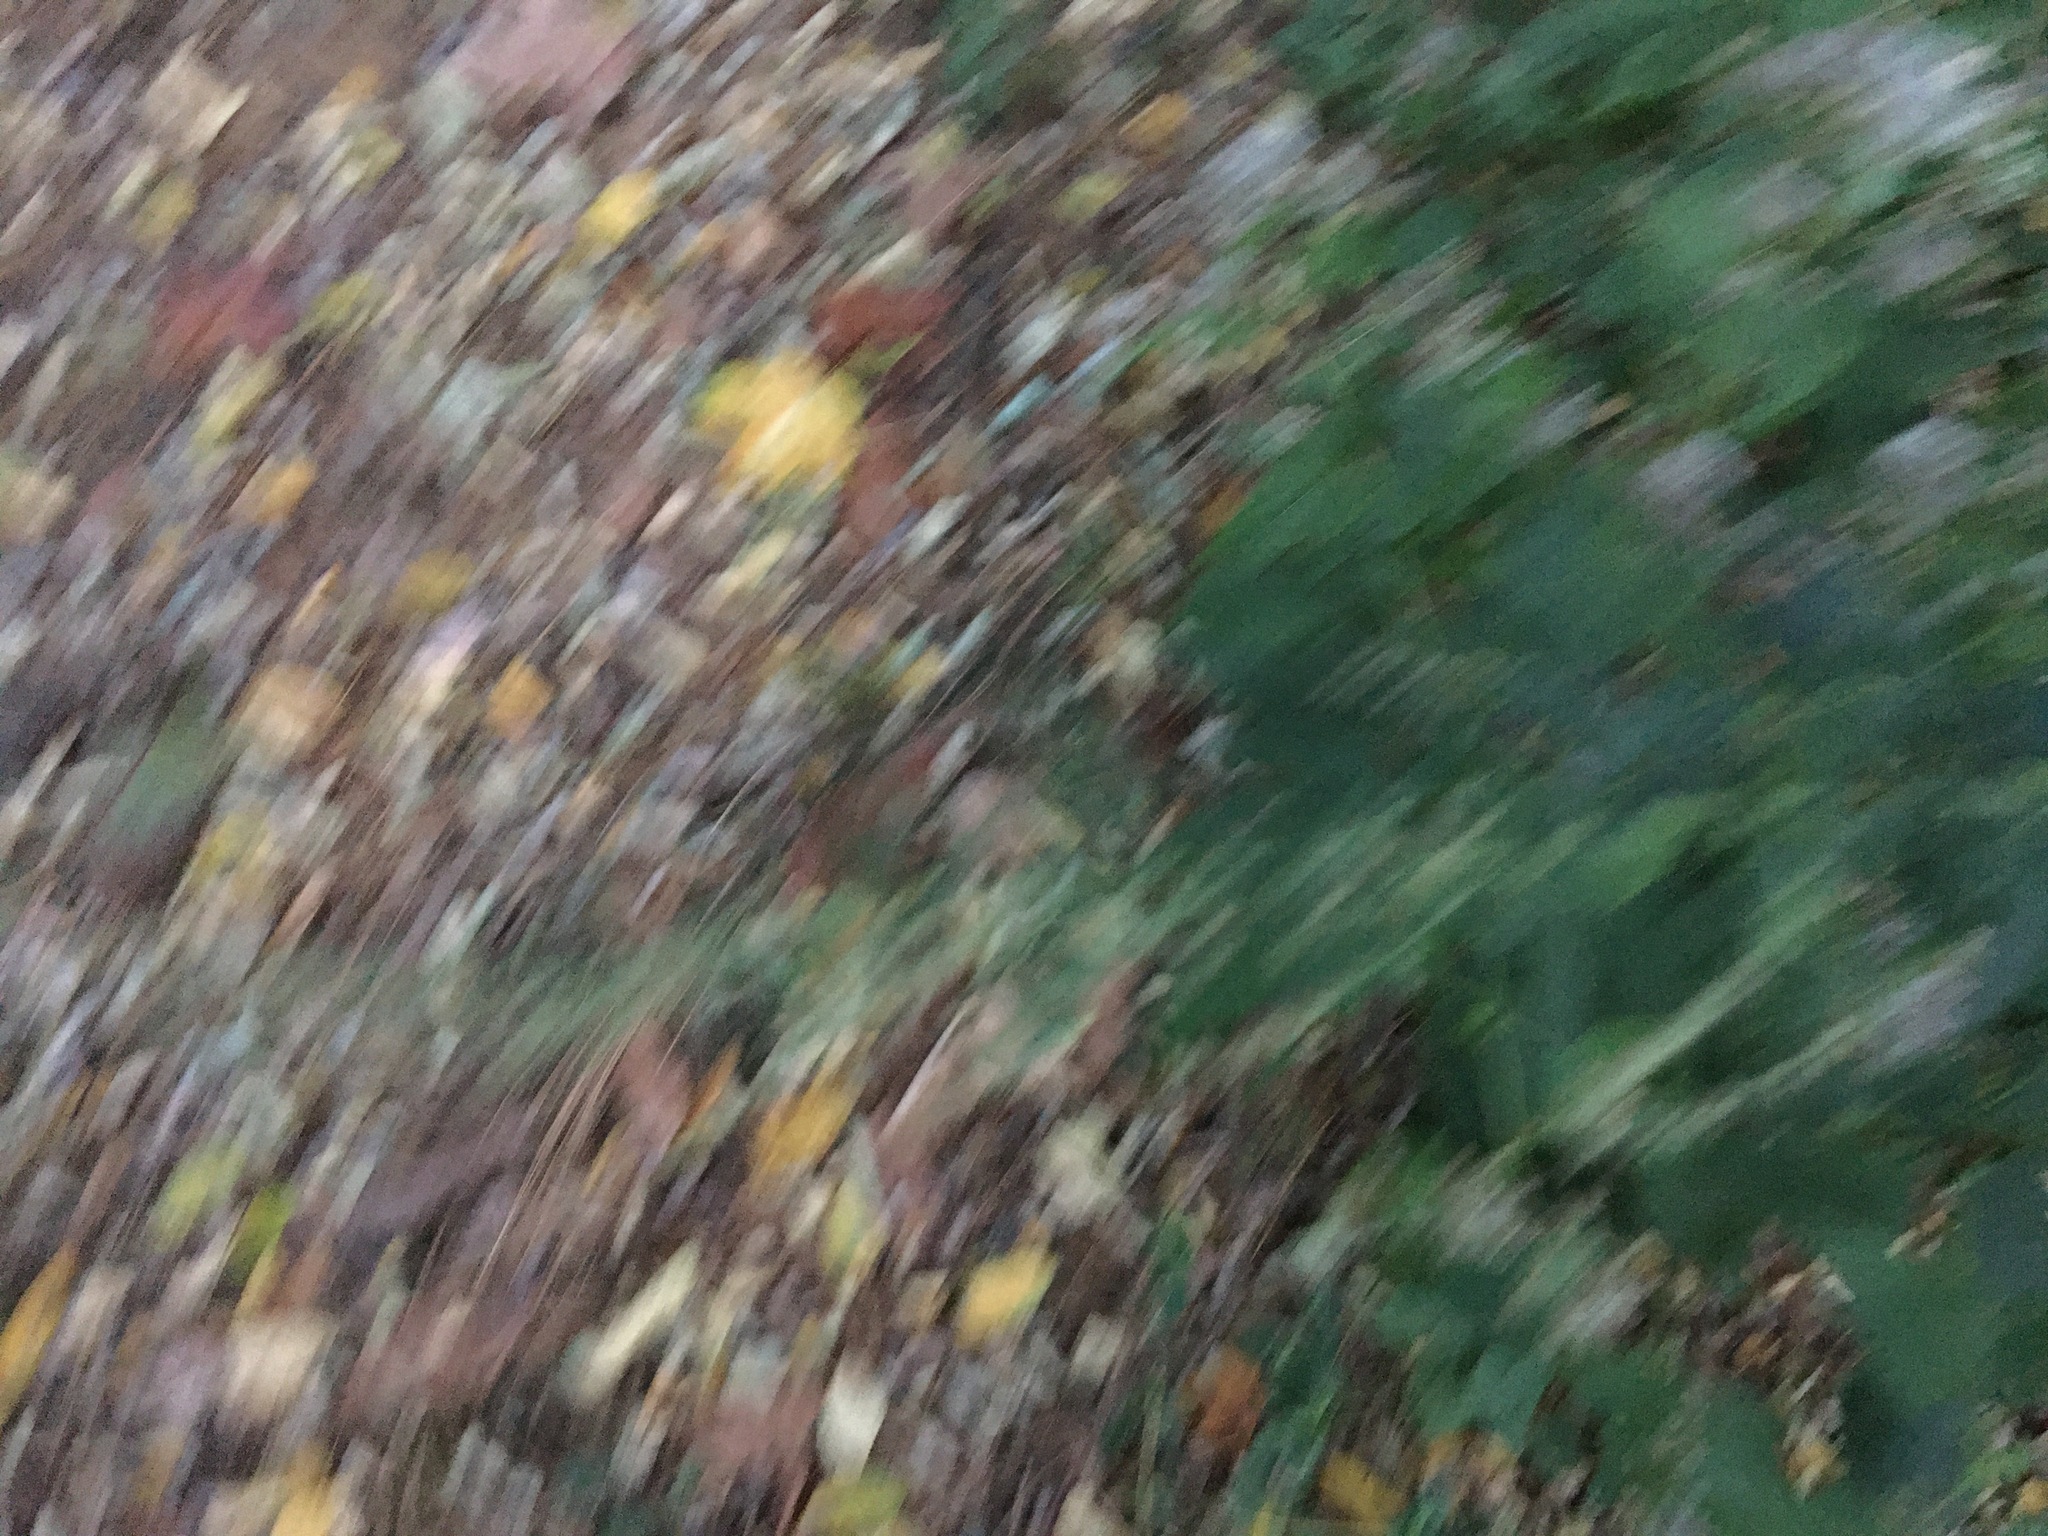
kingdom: Plantae
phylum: Tracheophyta
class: Magnoliopsida
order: Asterales
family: Asteraceae
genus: Artemisia
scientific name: Artemisia vulgaris
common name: Mugwort
